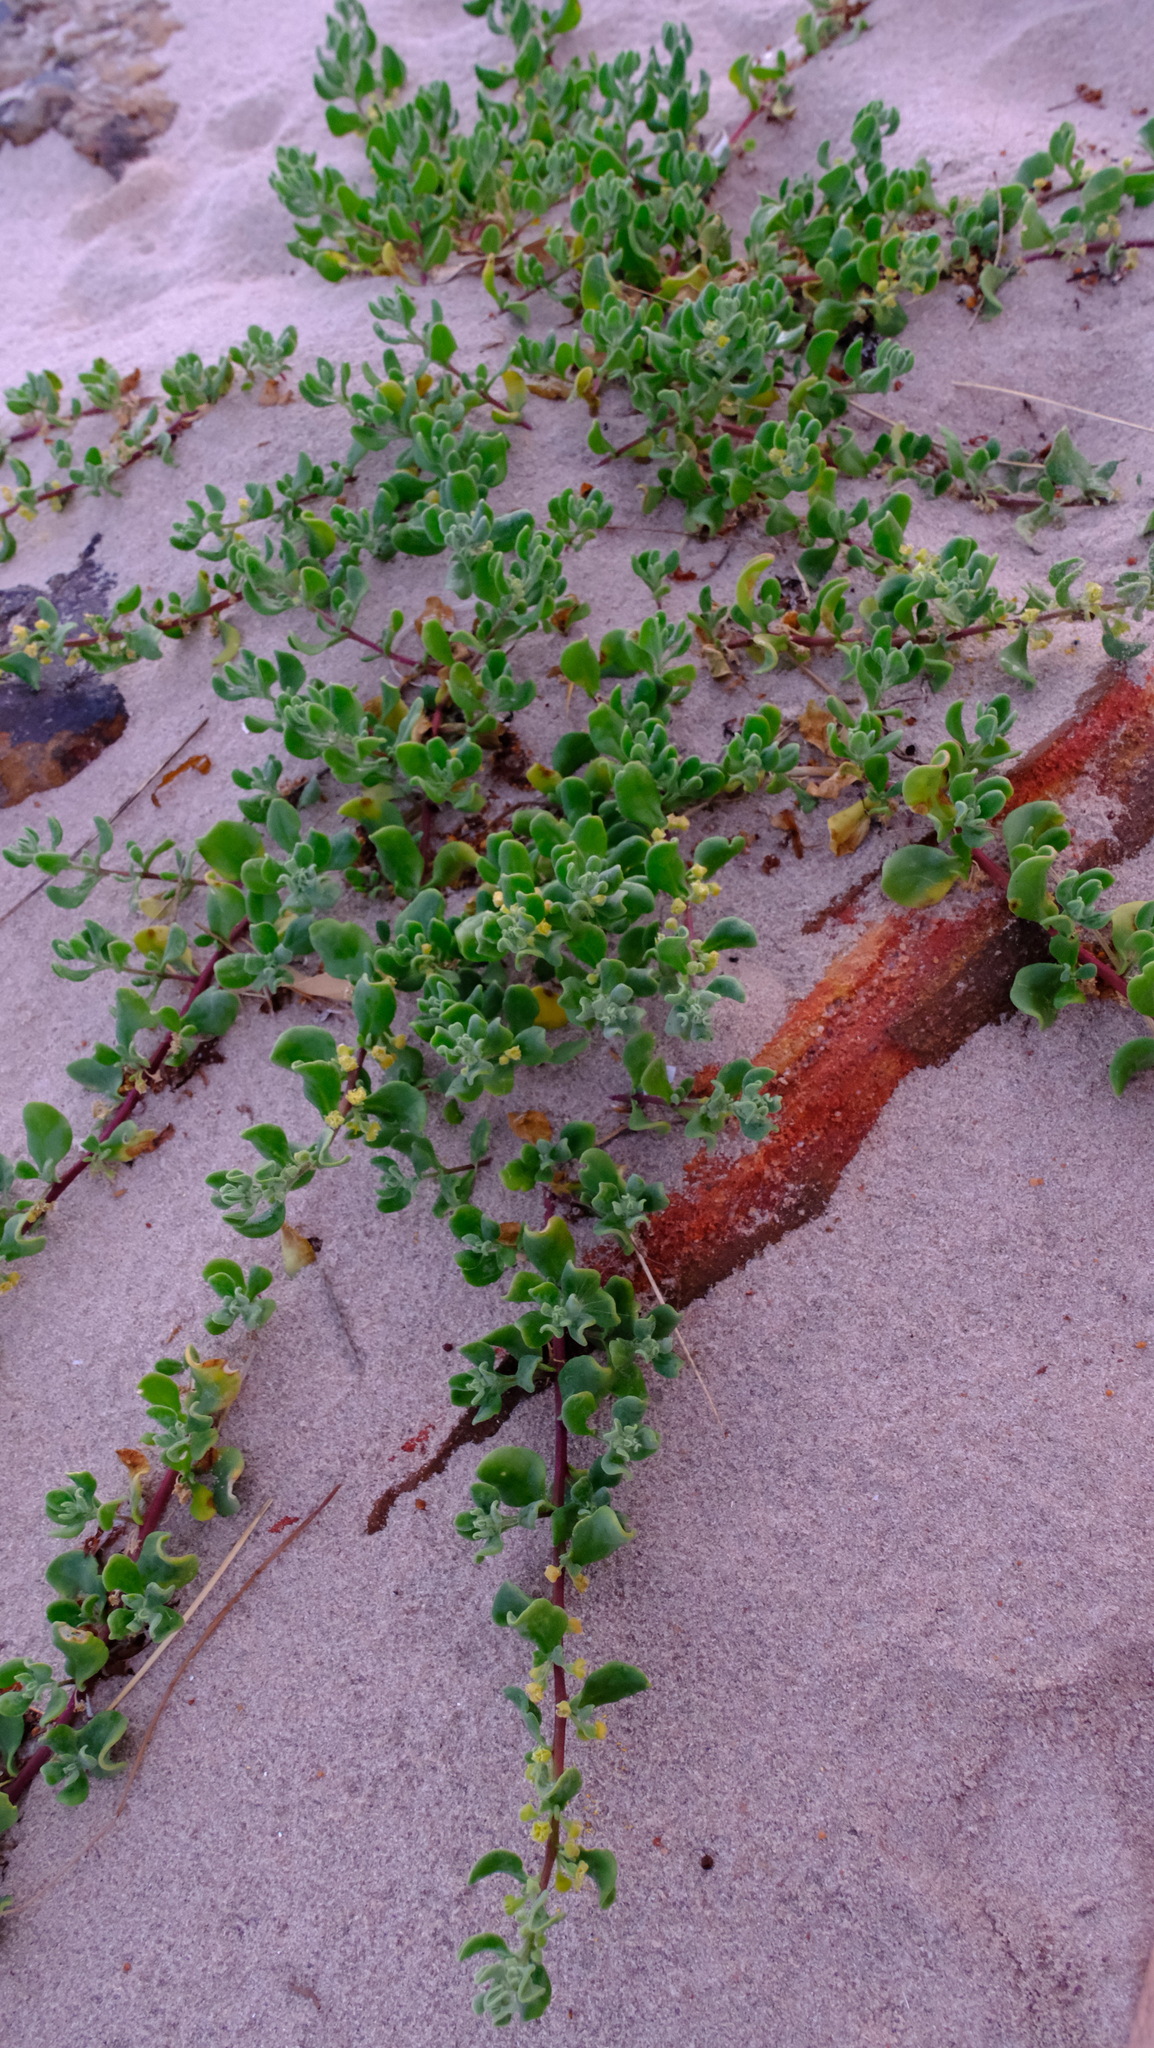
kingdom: Plantae
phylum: Tracheophyta
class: Magnoliopsida
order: Caryophyllales
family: Aizoaceae
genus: Tetragonia
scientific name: Tetragonia decumbens
